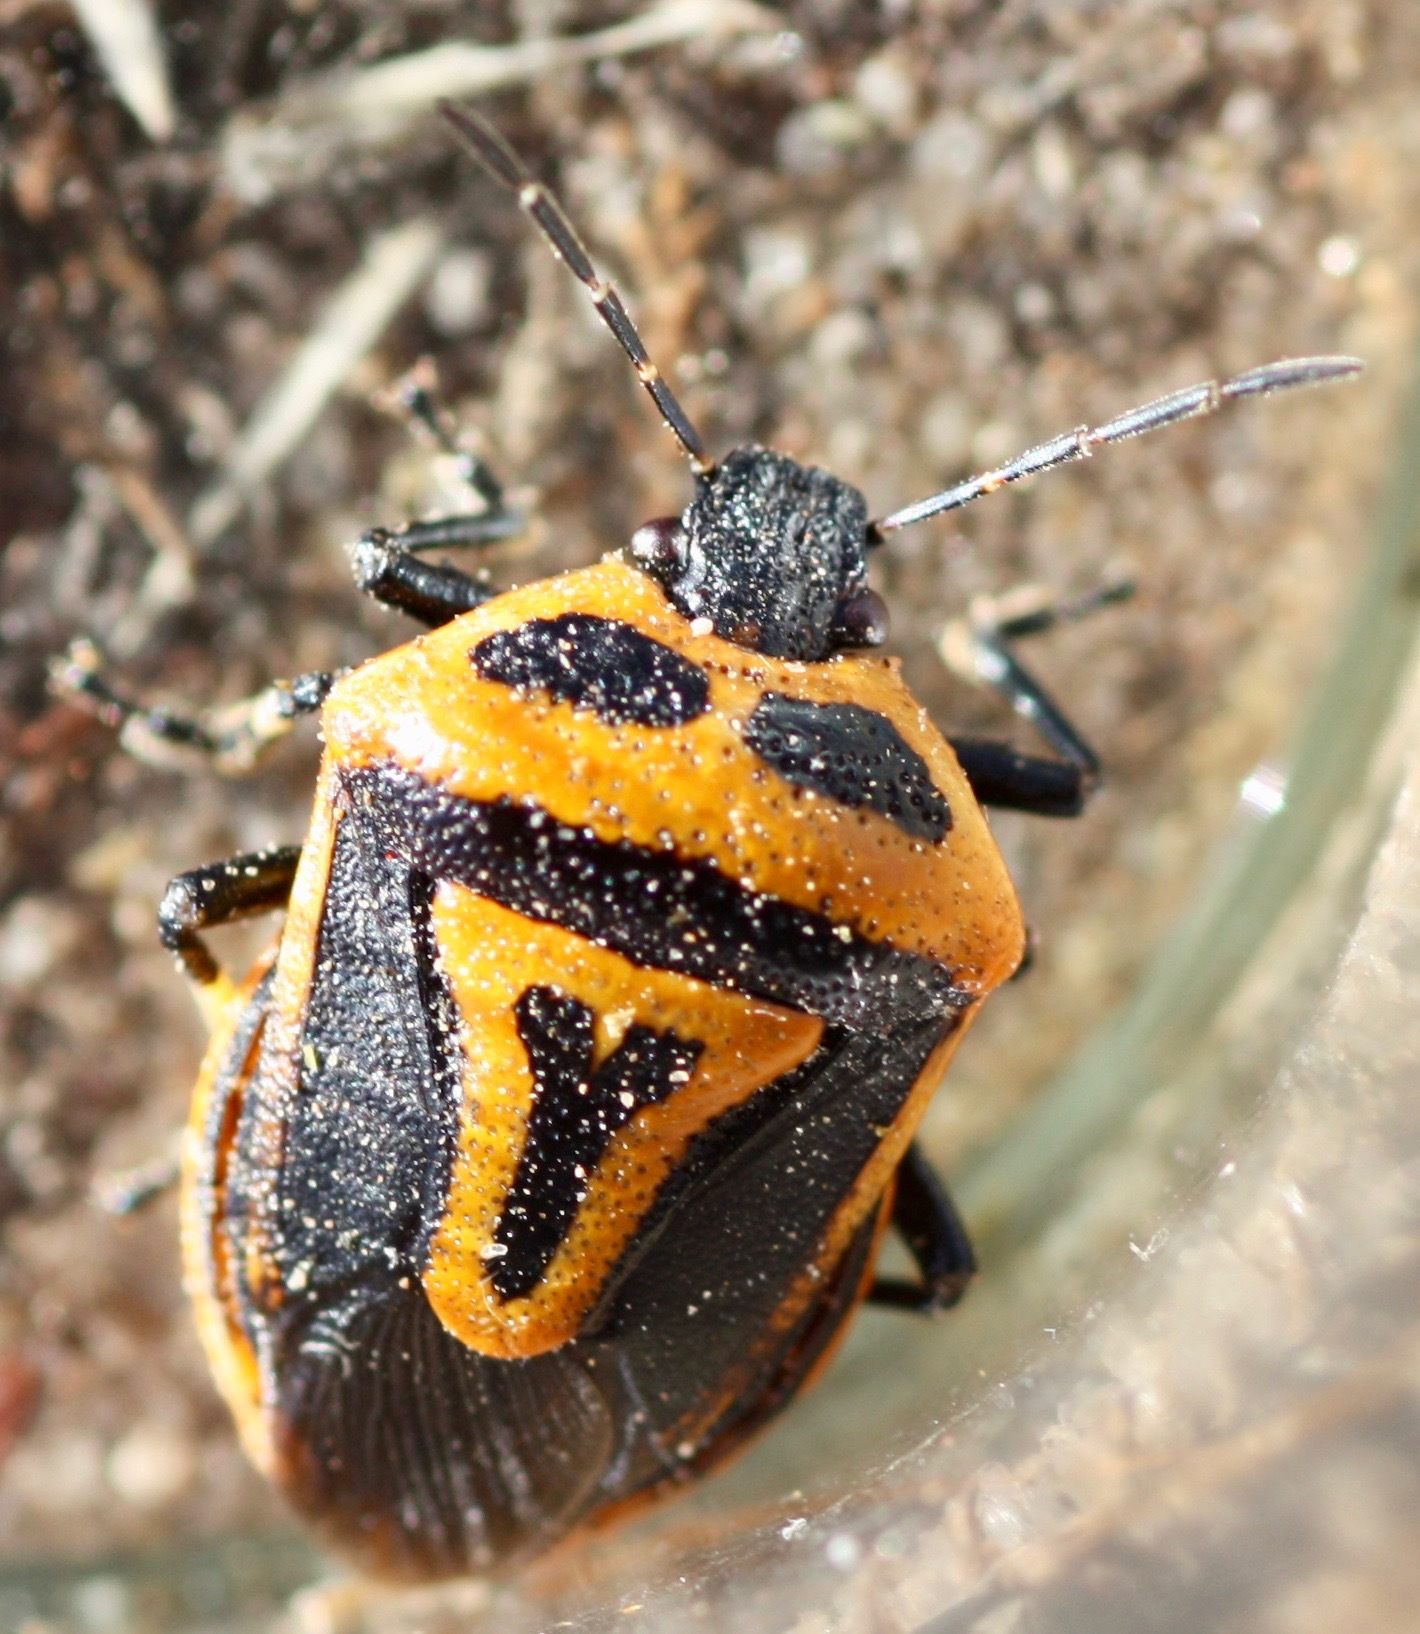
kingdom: Animalia
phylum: Arthropoda
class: Insecta
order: Hemiptera
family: Pentatomidae
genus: Perillus
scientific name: Perillus bioculatus
